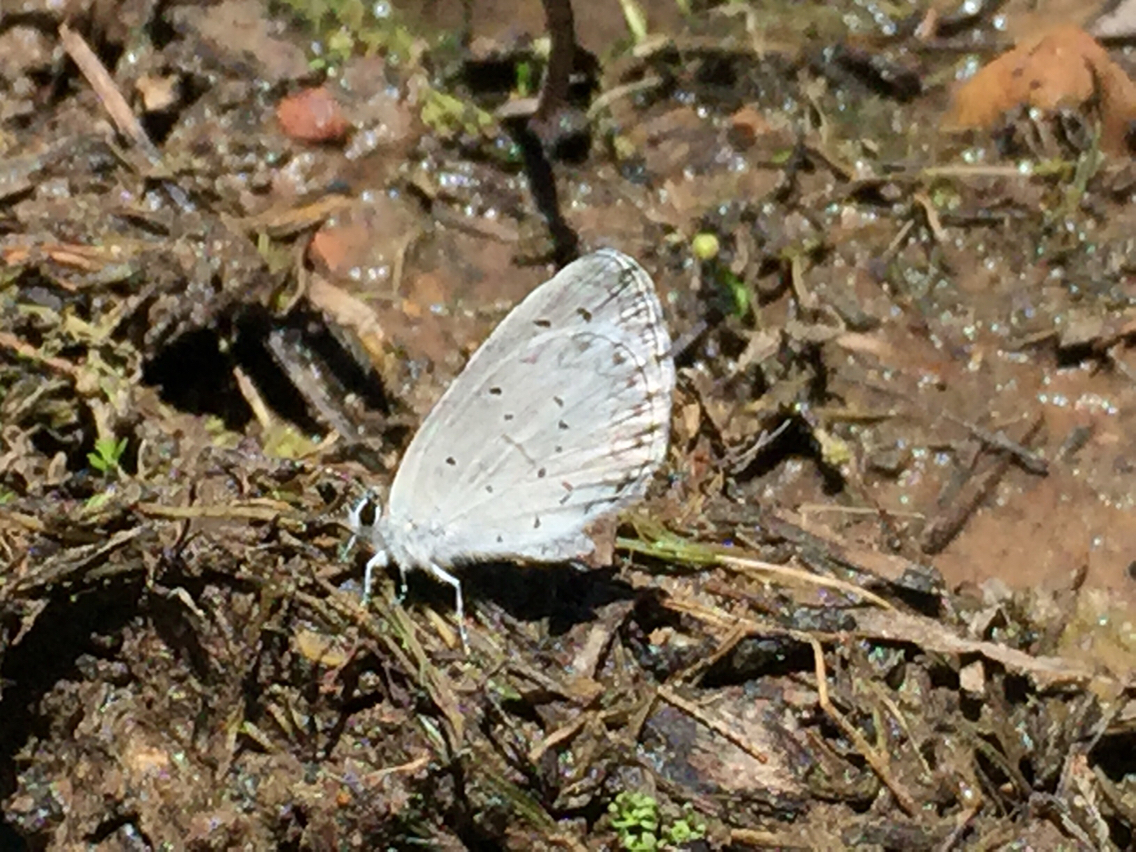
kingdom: Animalia
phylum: Arthropoda
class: Insecta
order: Lepidoptera
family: Lycaenidae
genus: Celastrina
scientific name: Celastrina argiolus
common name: Holly blue
